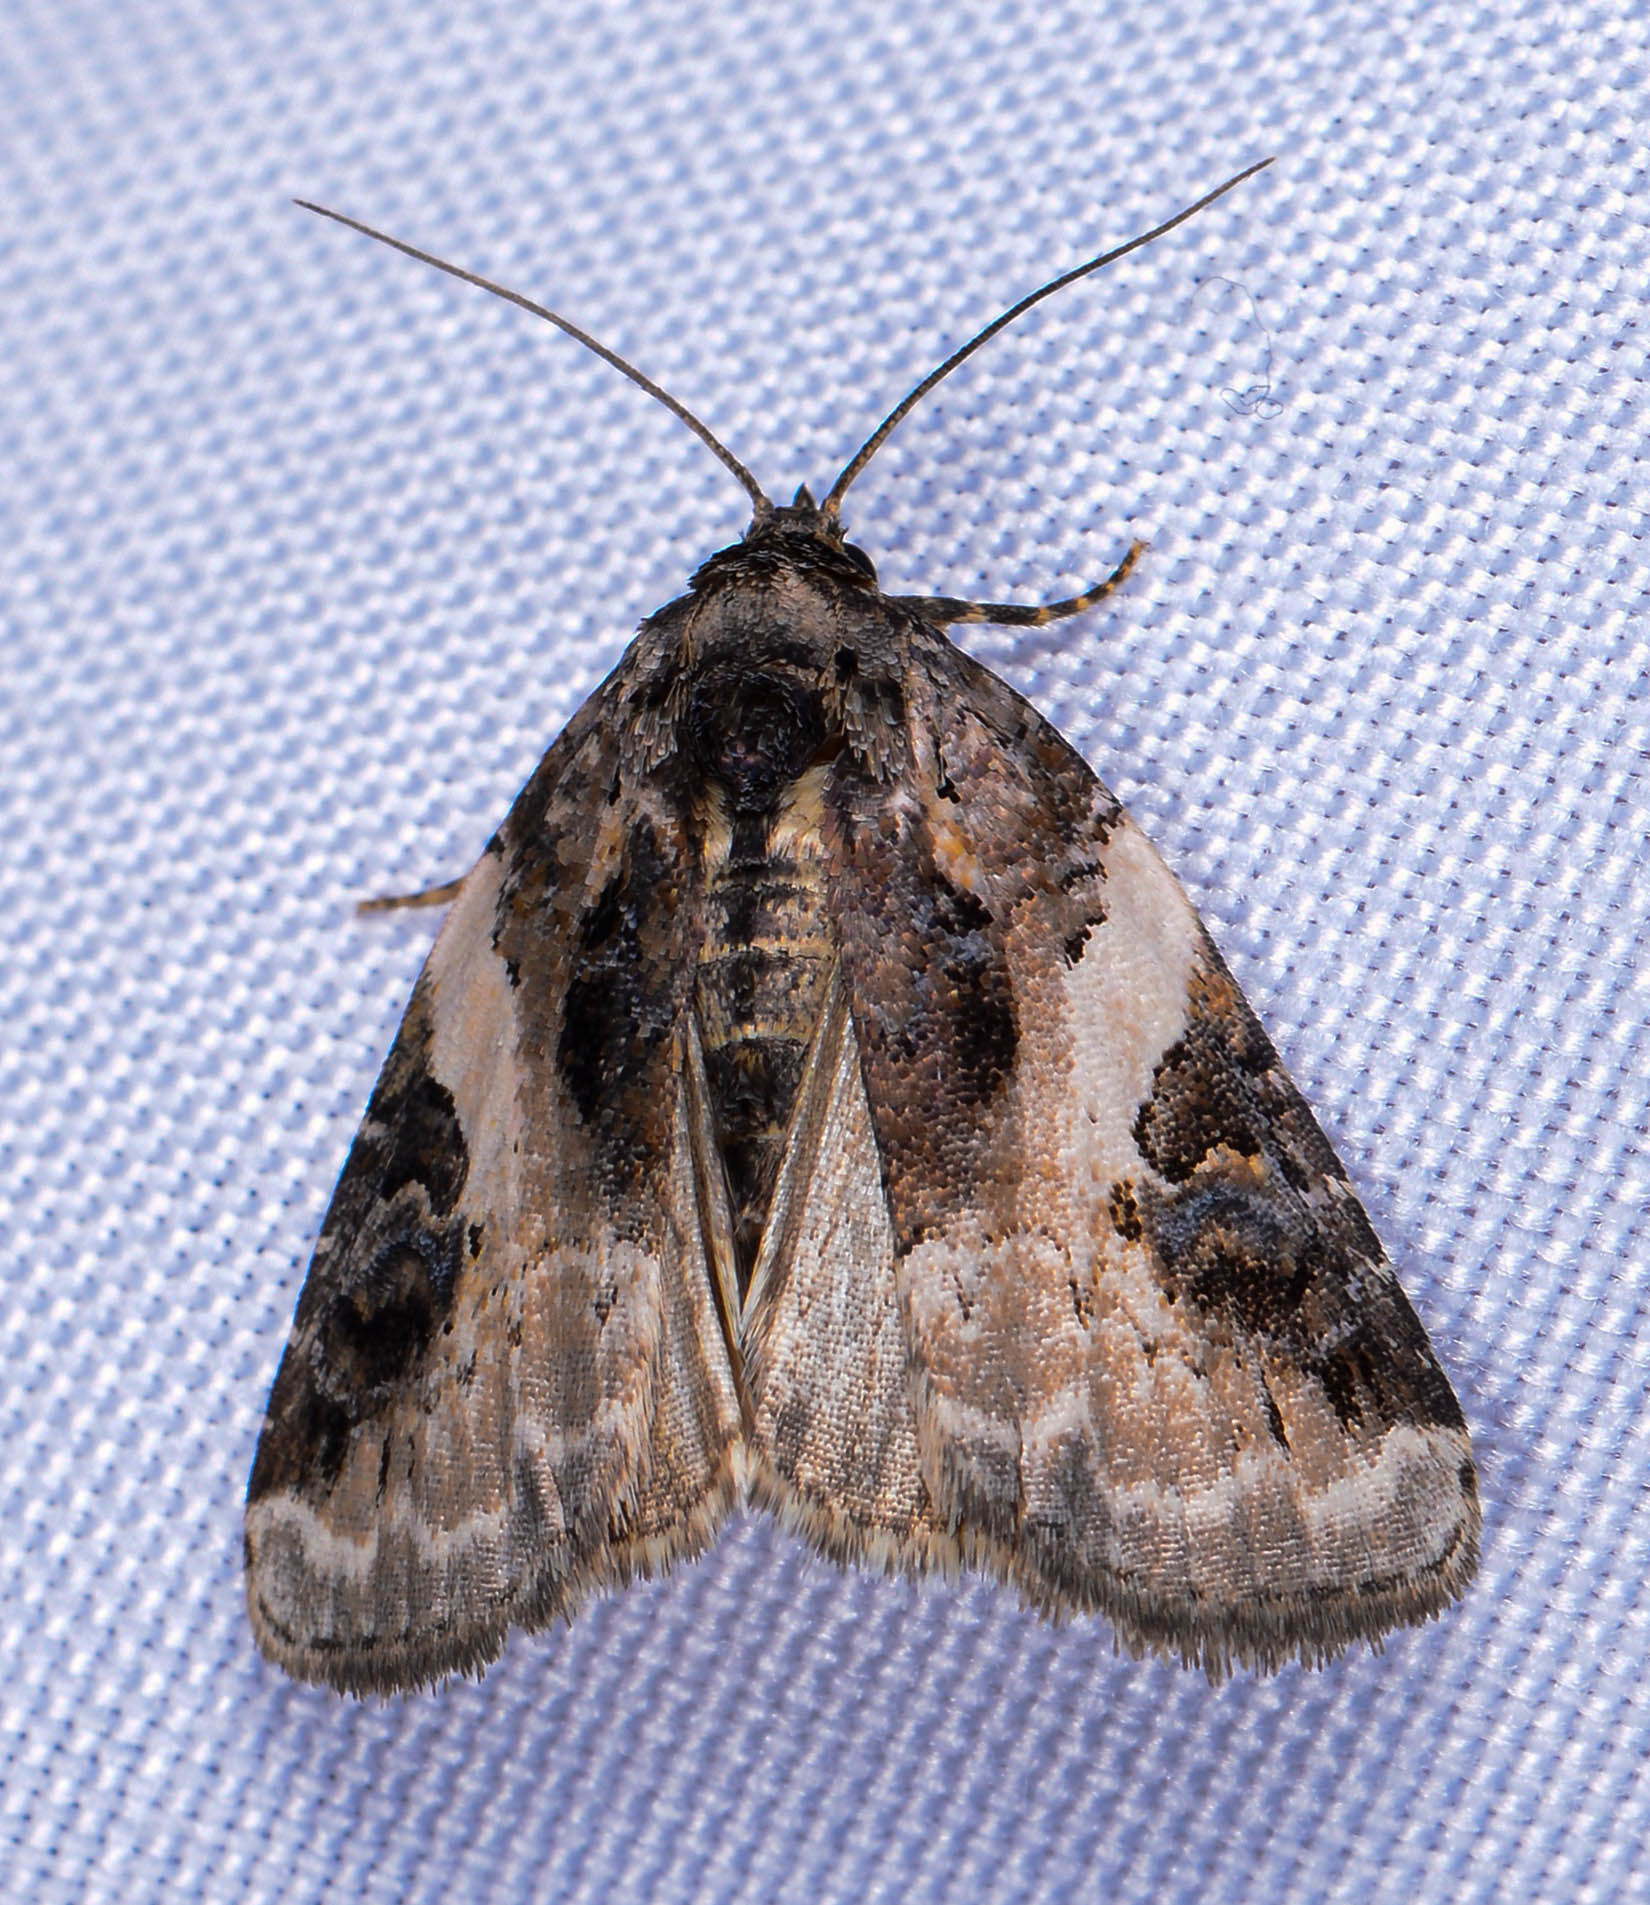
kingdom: Animalia
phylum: Arthropoda
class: Insecta
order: Lepidoptera
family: Noctuidae
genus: Pseudeustrotia
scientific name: Pseudeustrotia carneola
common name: Pink-barred lithacodia moth
